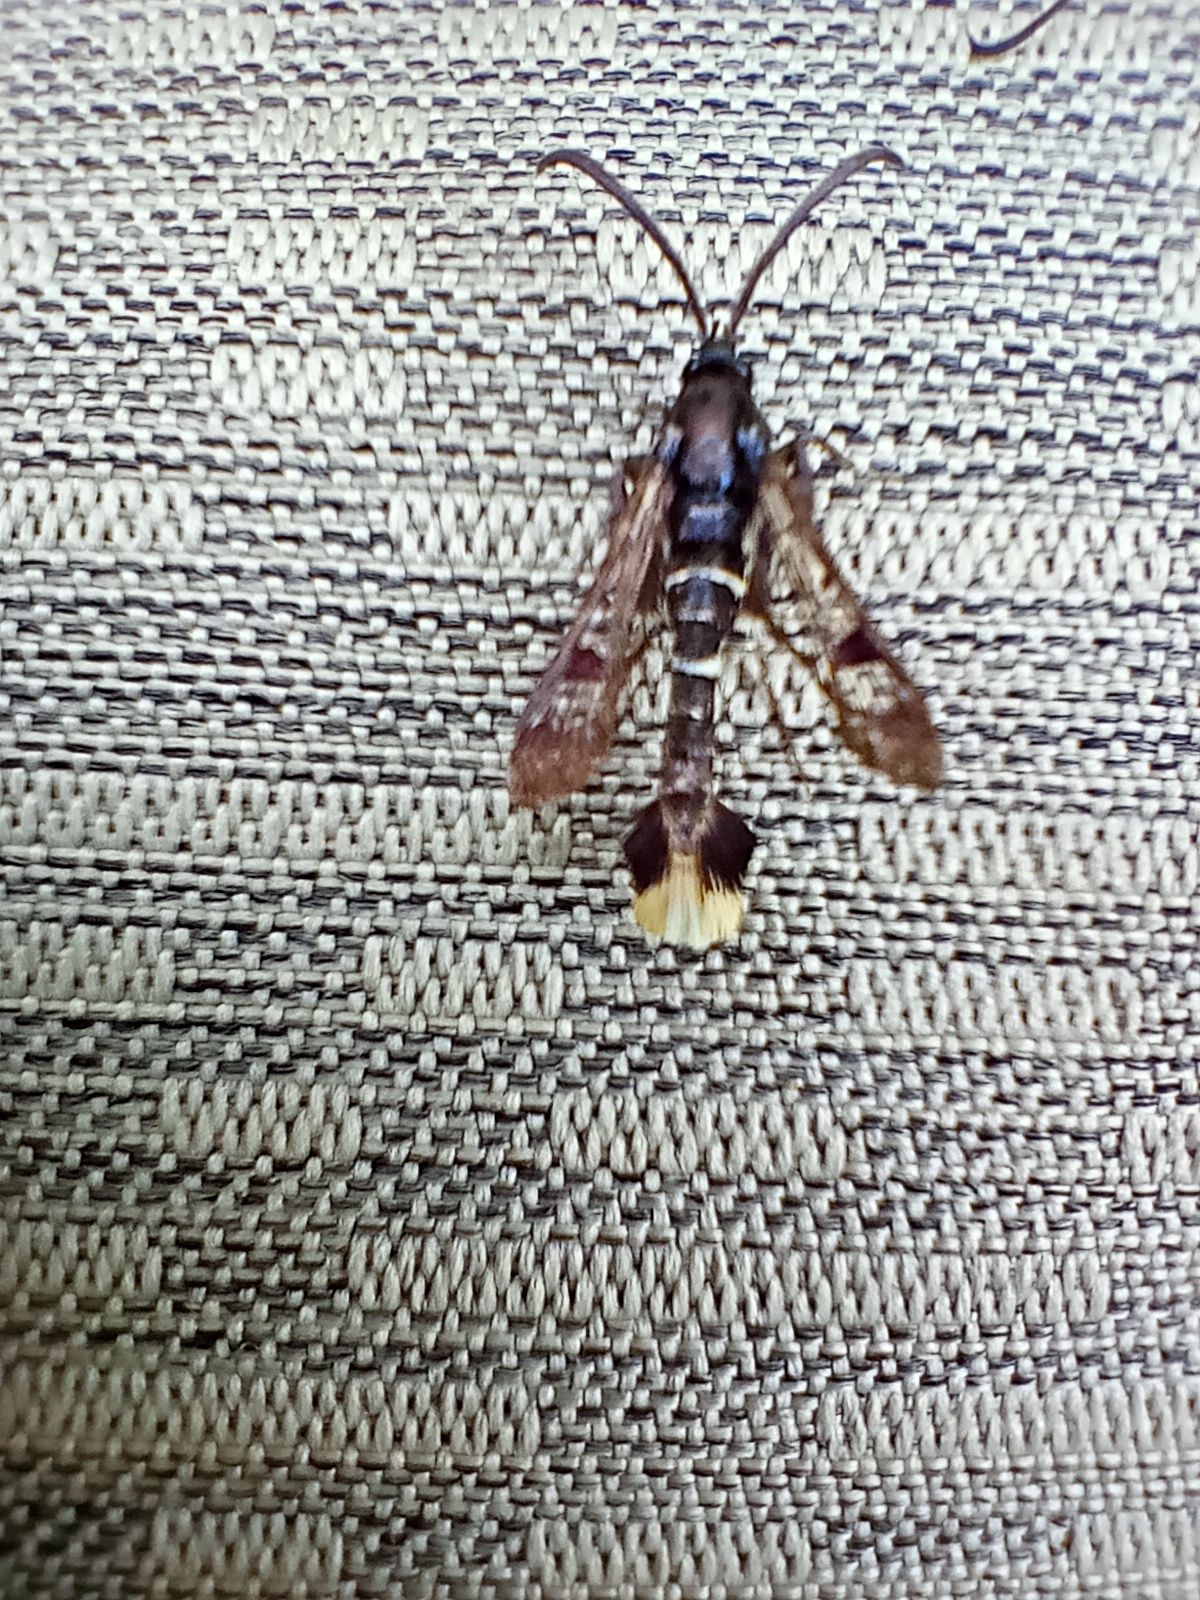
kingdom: Animalia
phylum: Arthropoda
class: Insecta
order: Lepidoptera
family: Sesiidae
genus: Synanthedon
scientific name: Synanthedon andrenaeformis
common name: Orange-tailed clearwing
